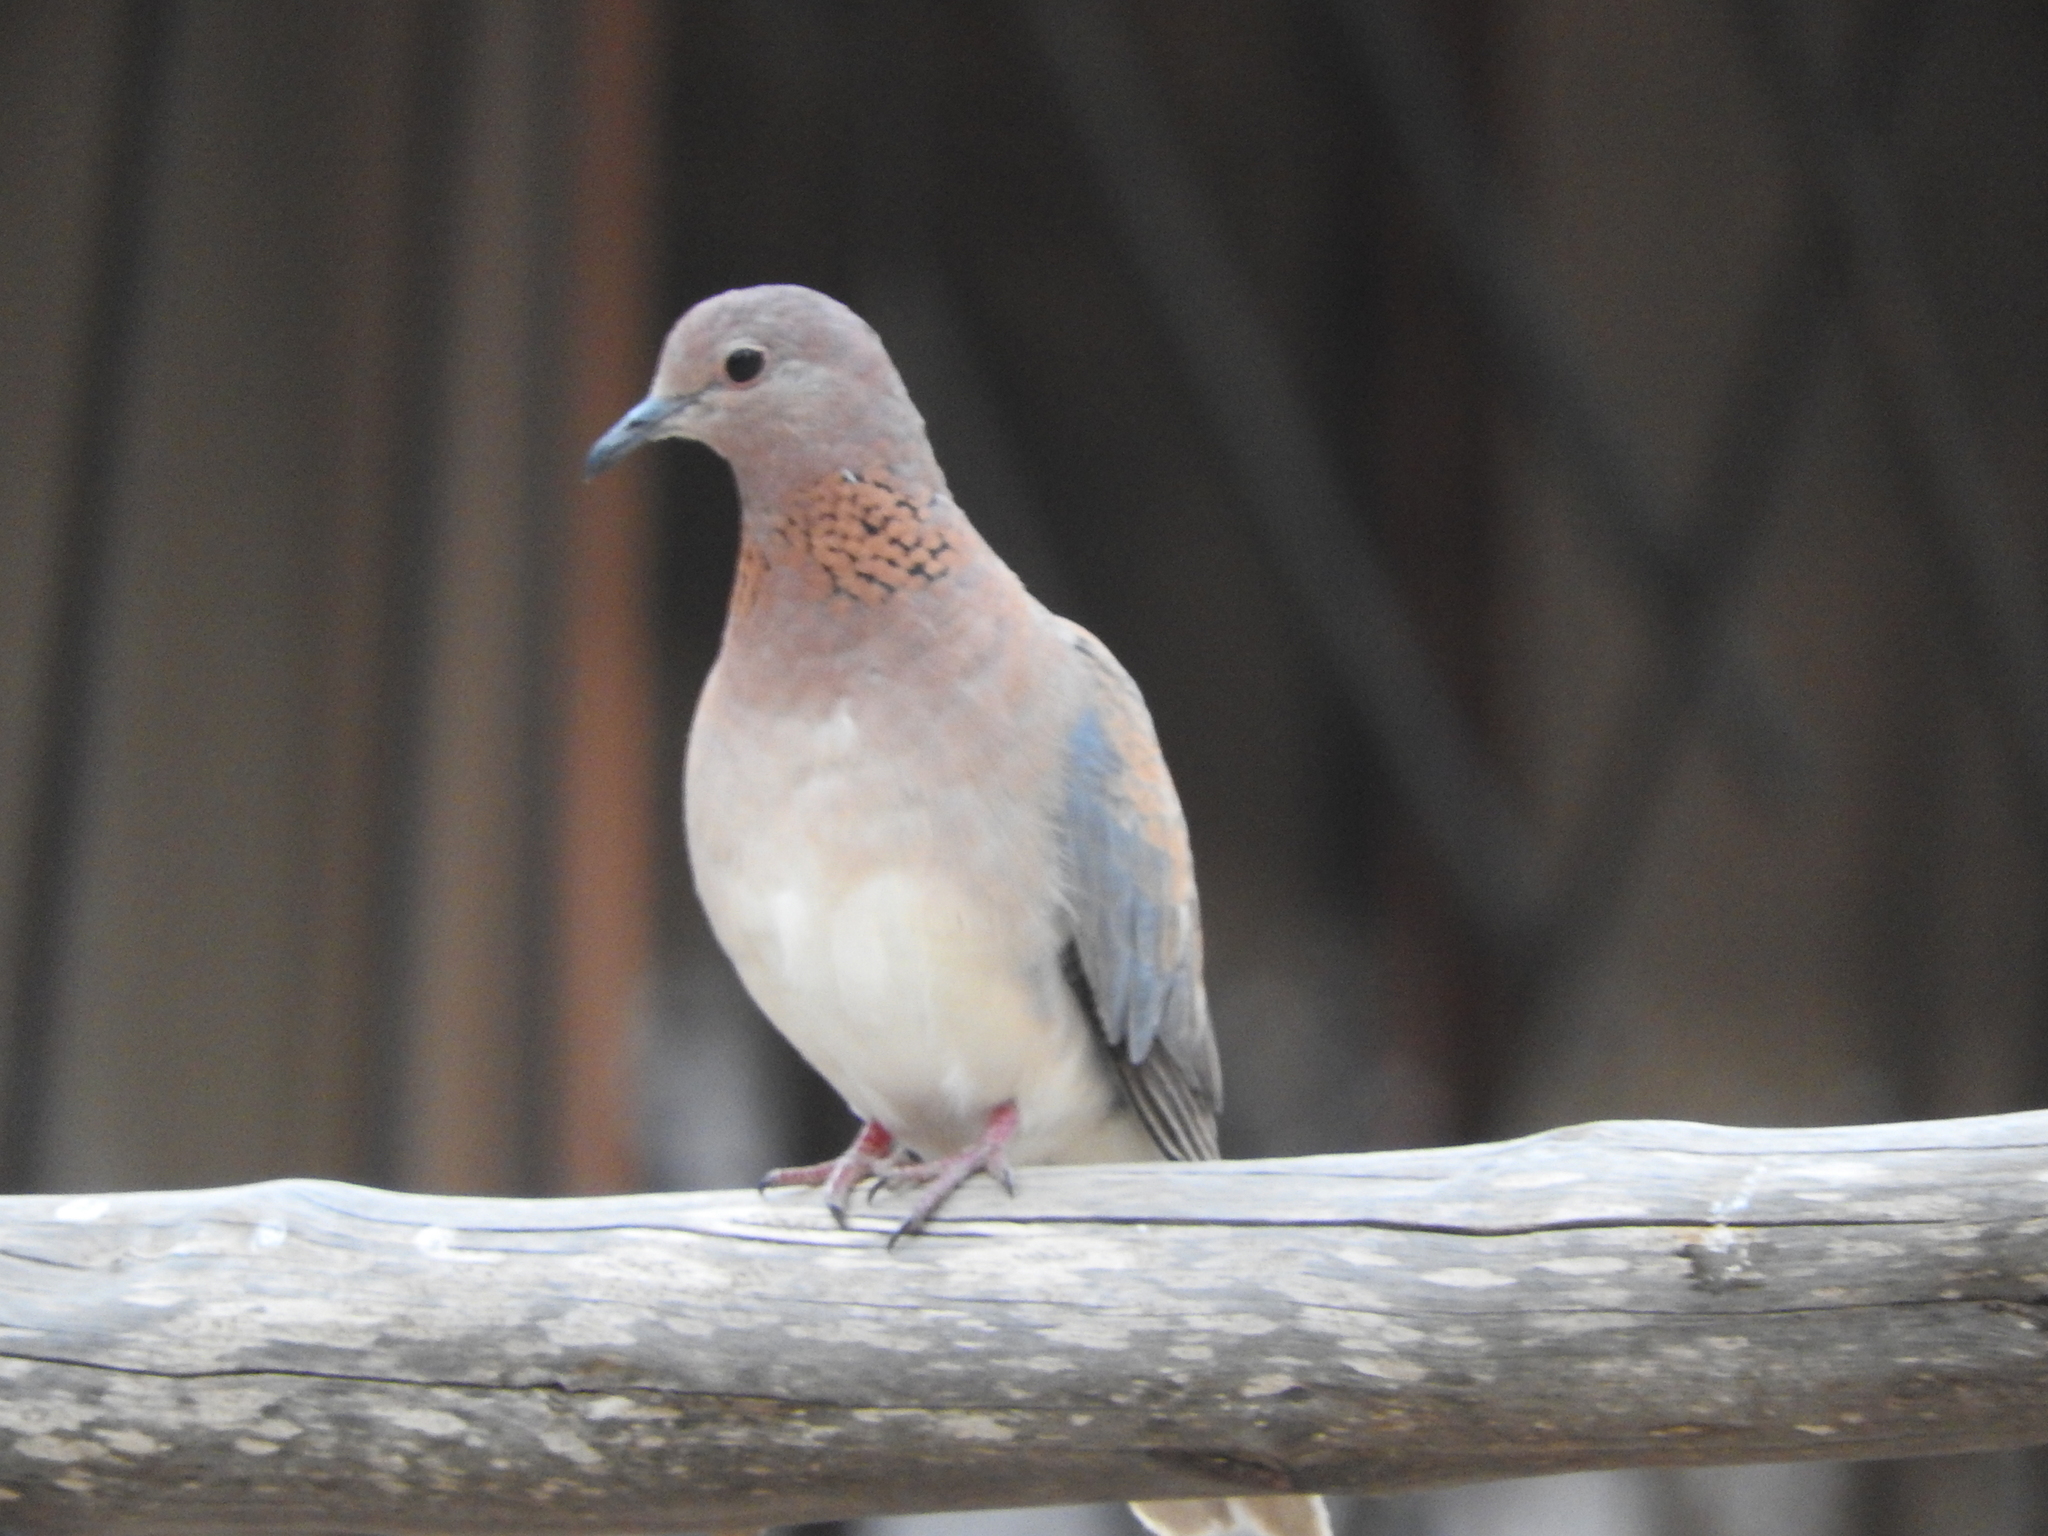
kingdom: Animalia
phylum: Chordata
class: Aves
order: Columbiformes
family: Columbidae
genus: Spilopelia
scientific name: Spilopelia senegalensis
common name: Laughing dove
